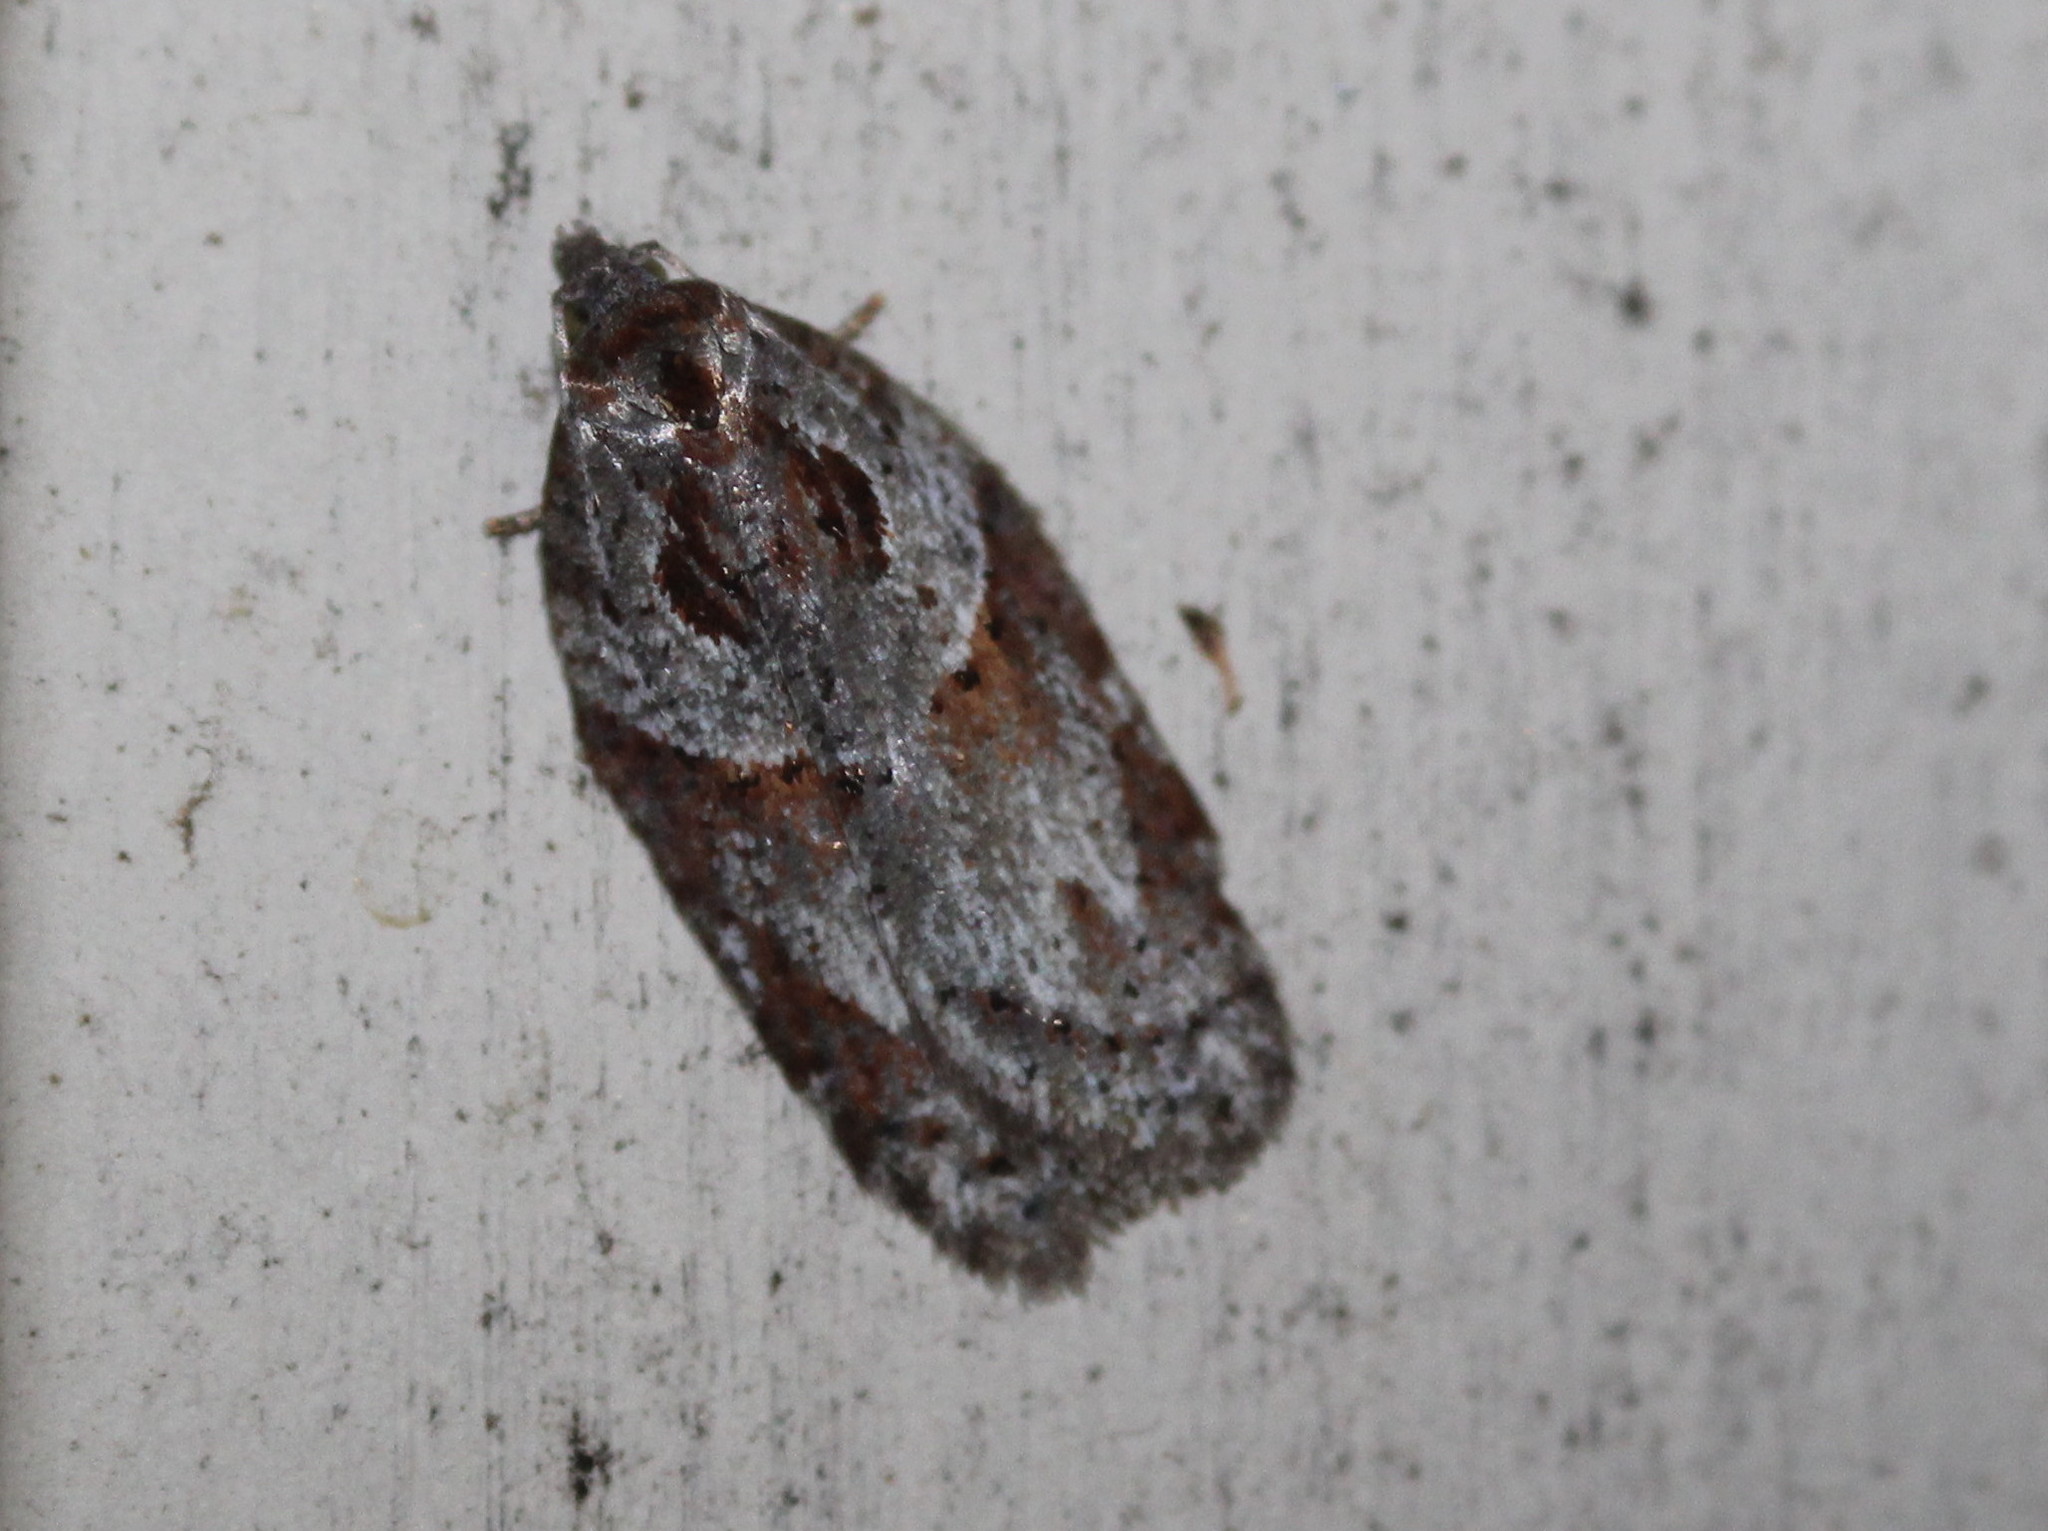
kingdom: Animalia
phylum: Arthropoda
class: Insecta
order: Lepidoptera
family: Tortricidae
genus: Acleris
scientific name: Acleris maculidorsana
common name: Stained-back leafroller moth
